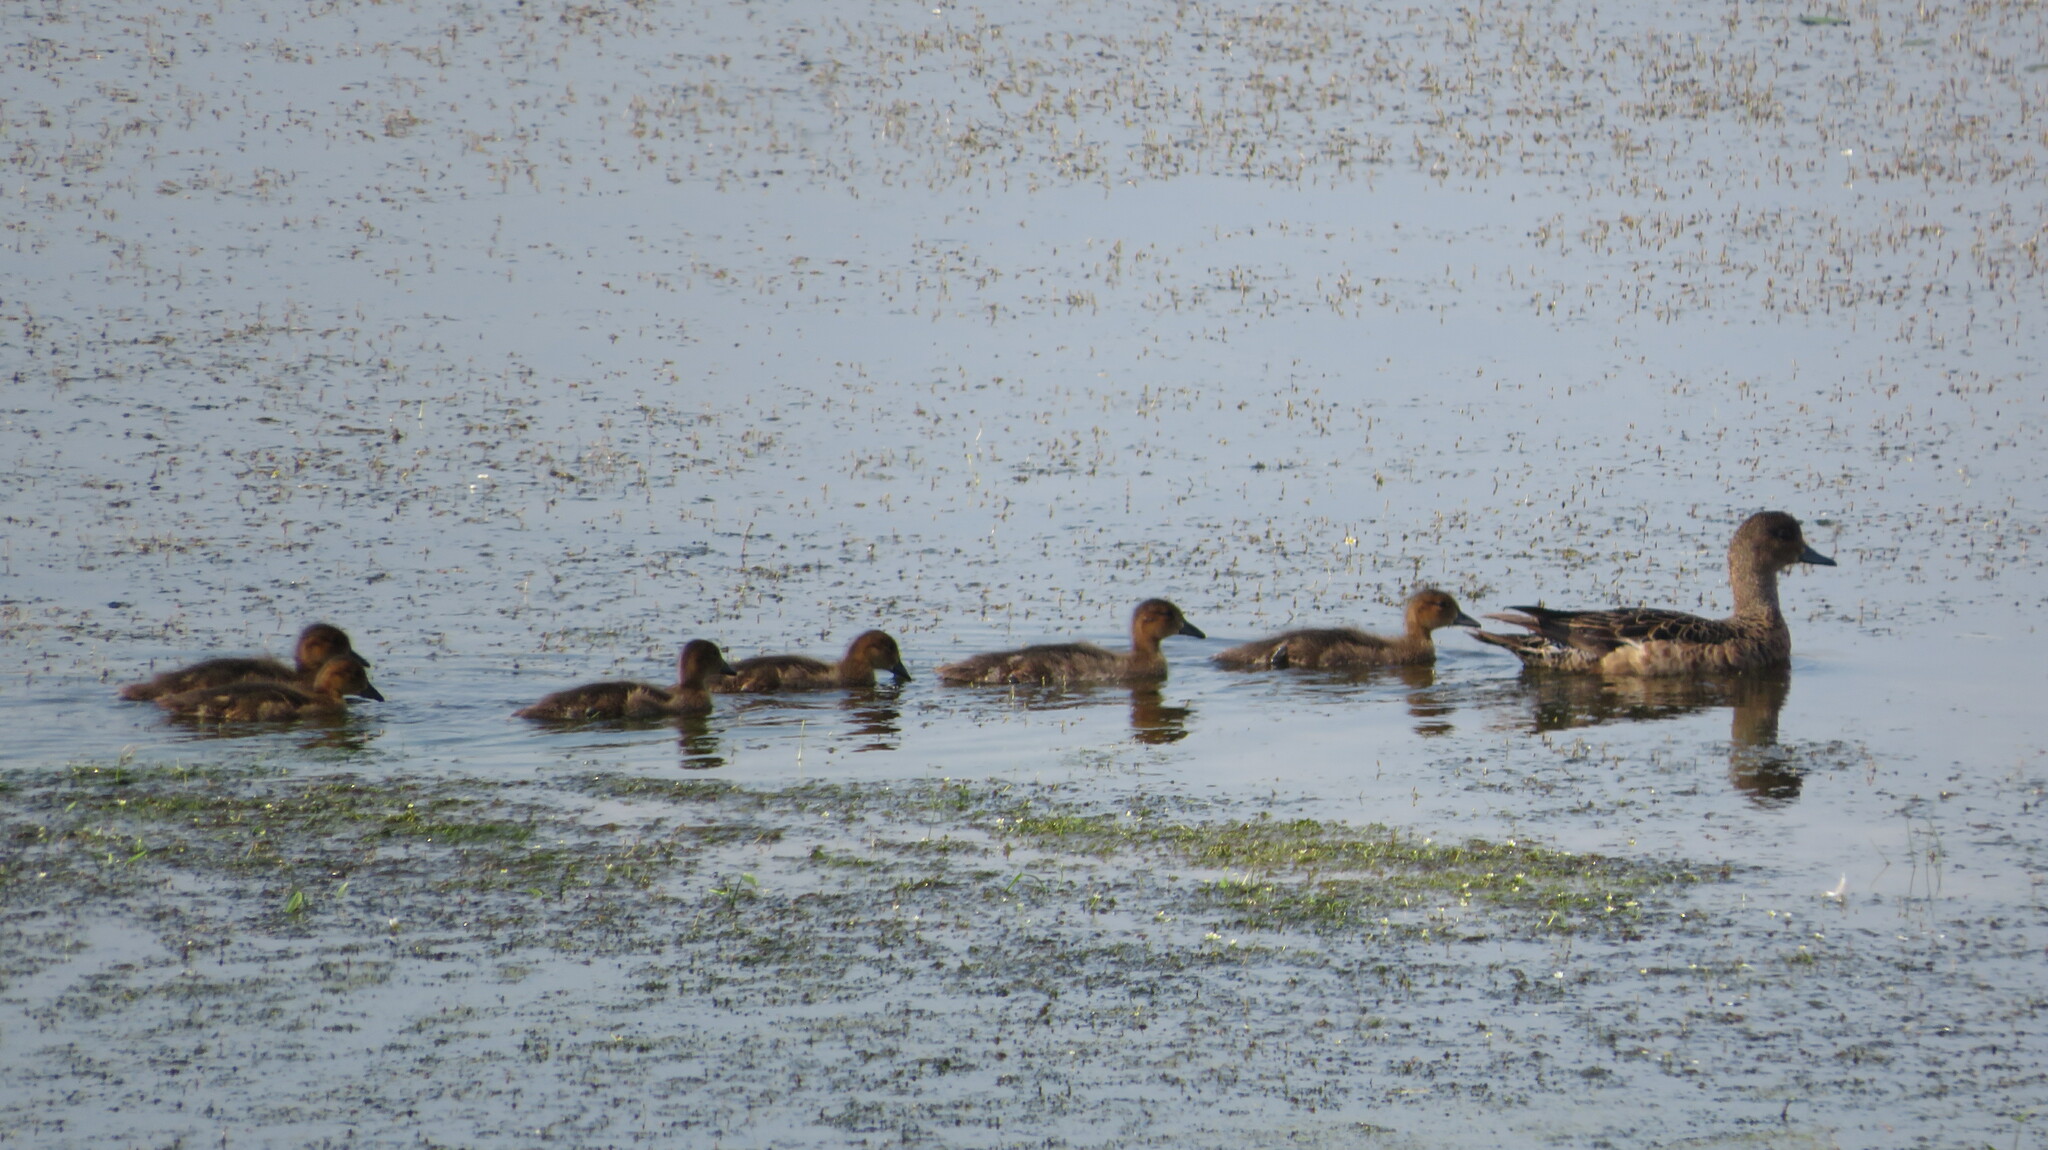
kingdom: Animalia
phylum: Chordata
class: Aves
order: Anseriformes
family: Anatidae
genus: Mareca
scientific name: Mareca penelope
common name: Eurasian wigeon
